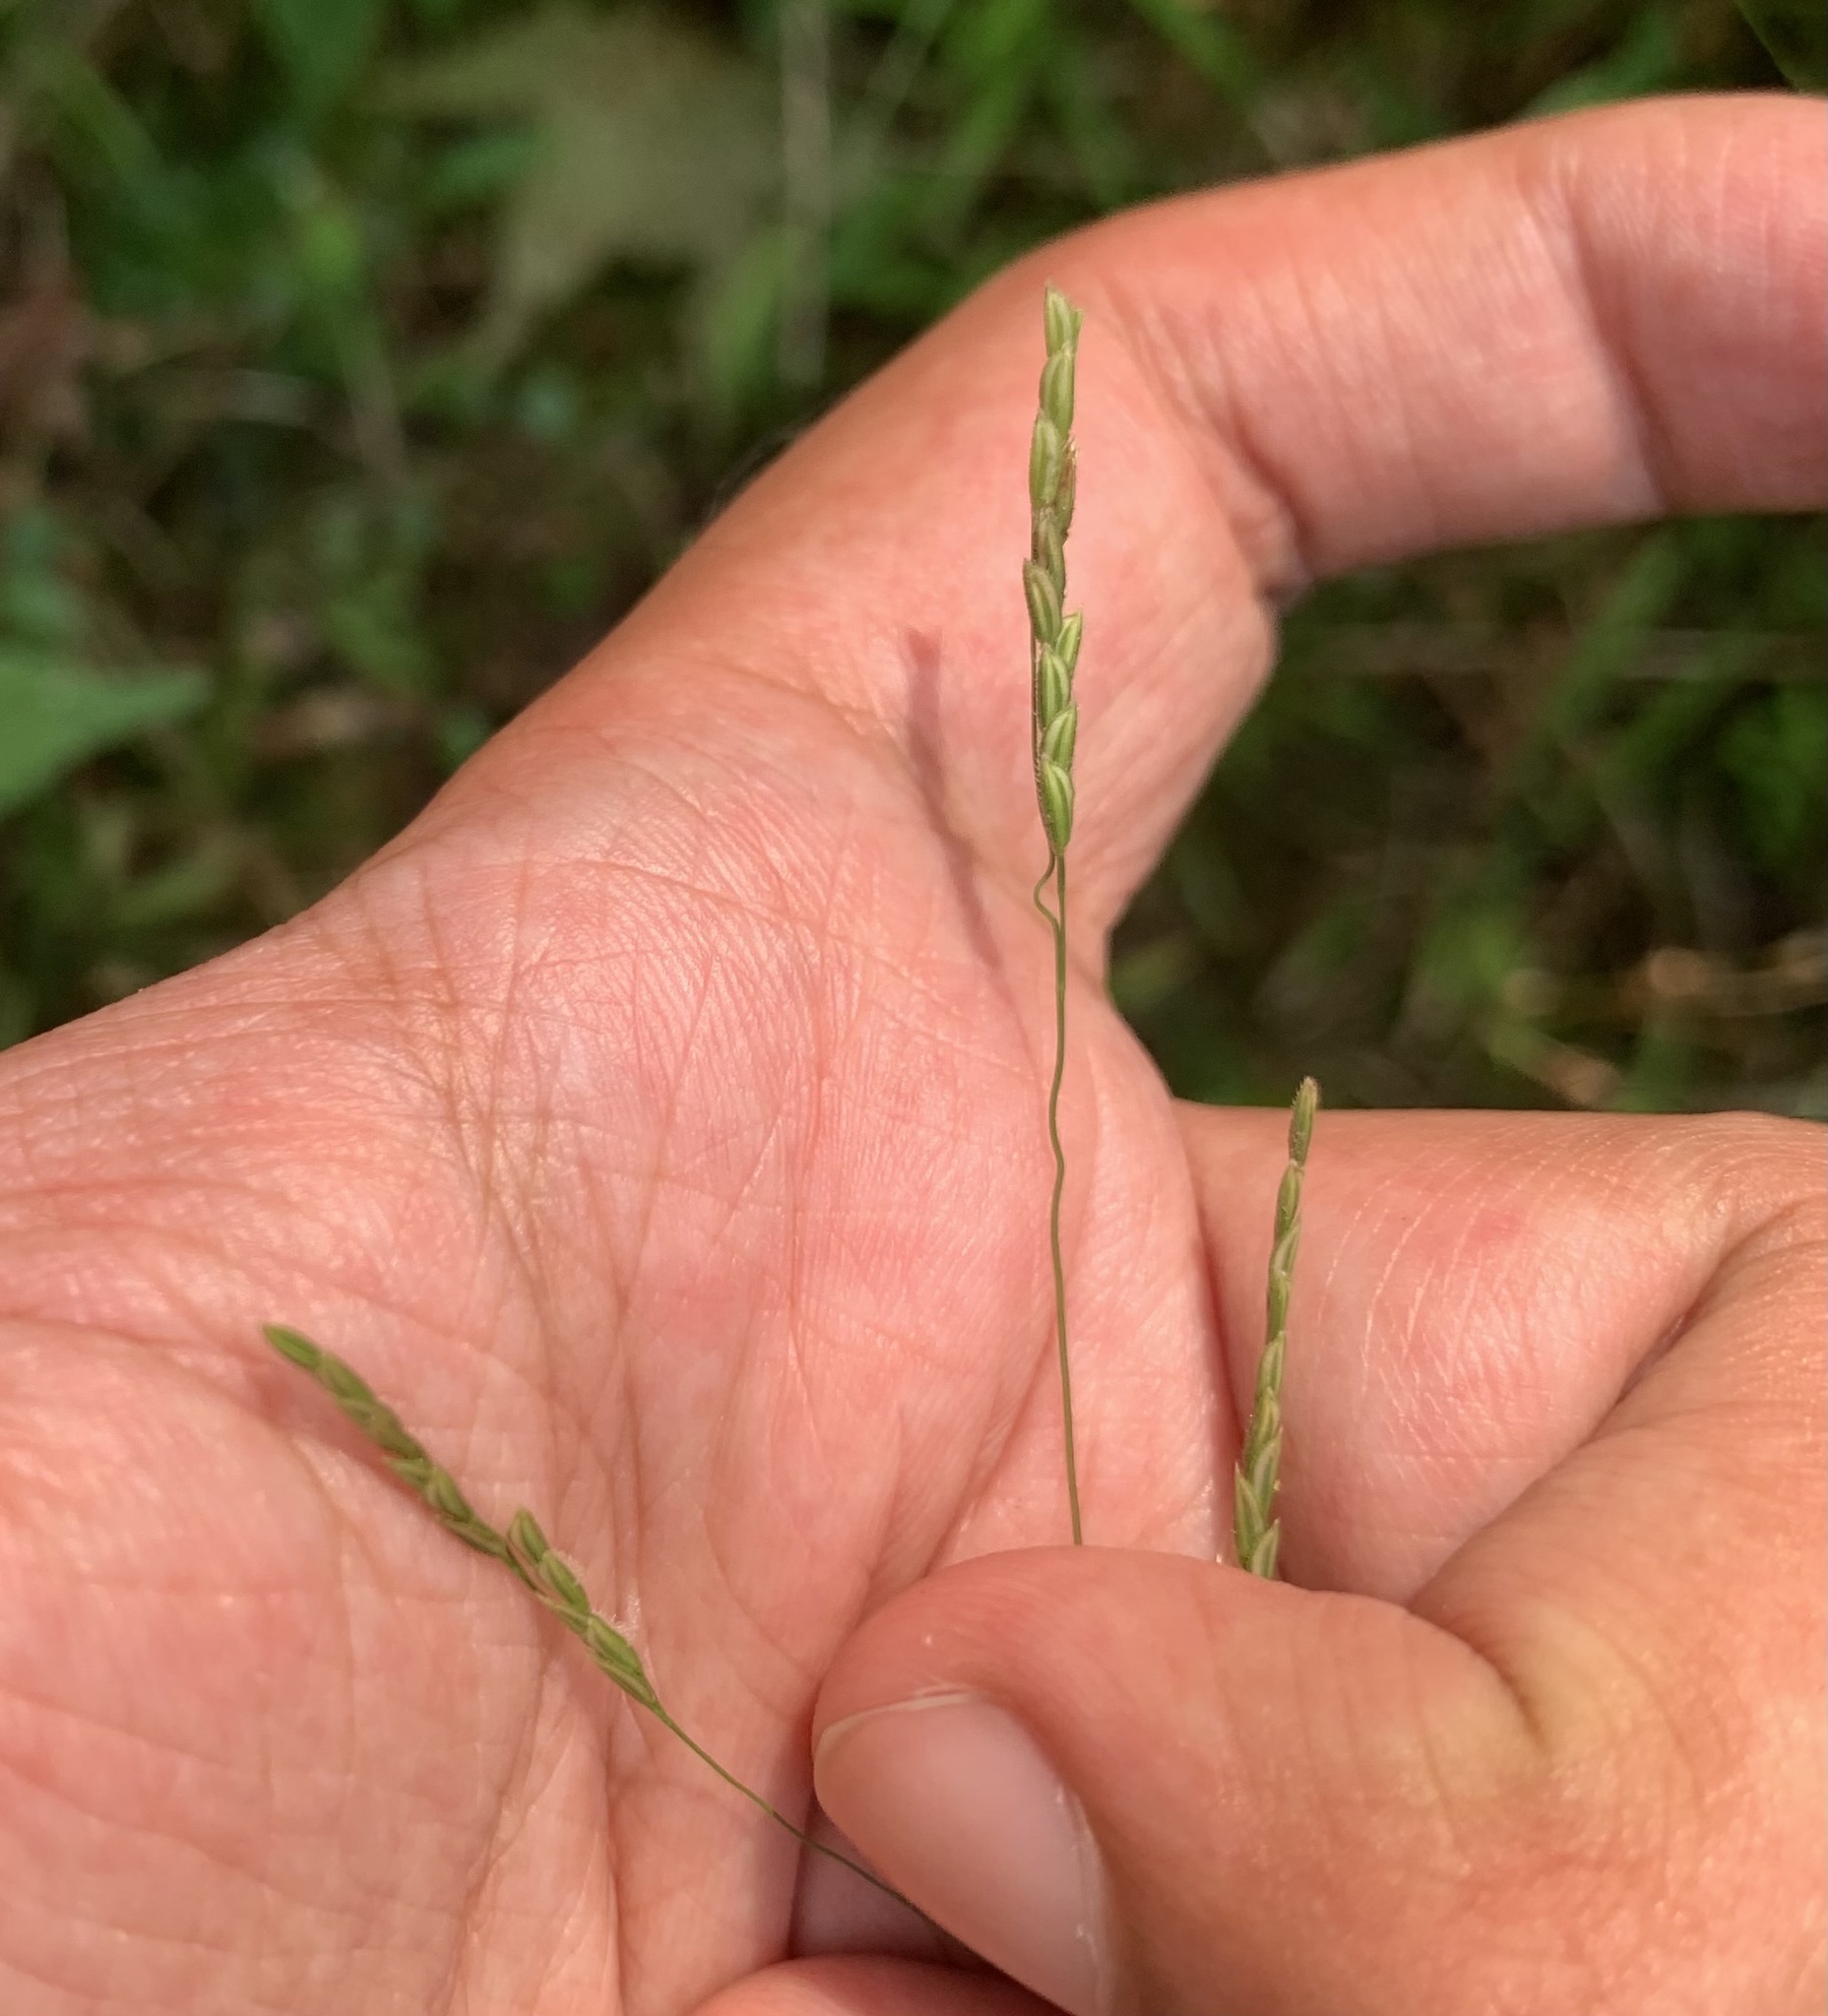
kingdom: Plantae
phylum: Tracheophyta
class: Liliopsida
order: Poales
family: Poaceae
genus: Leersia
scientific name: Leersia virginica
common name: White cutgrass
